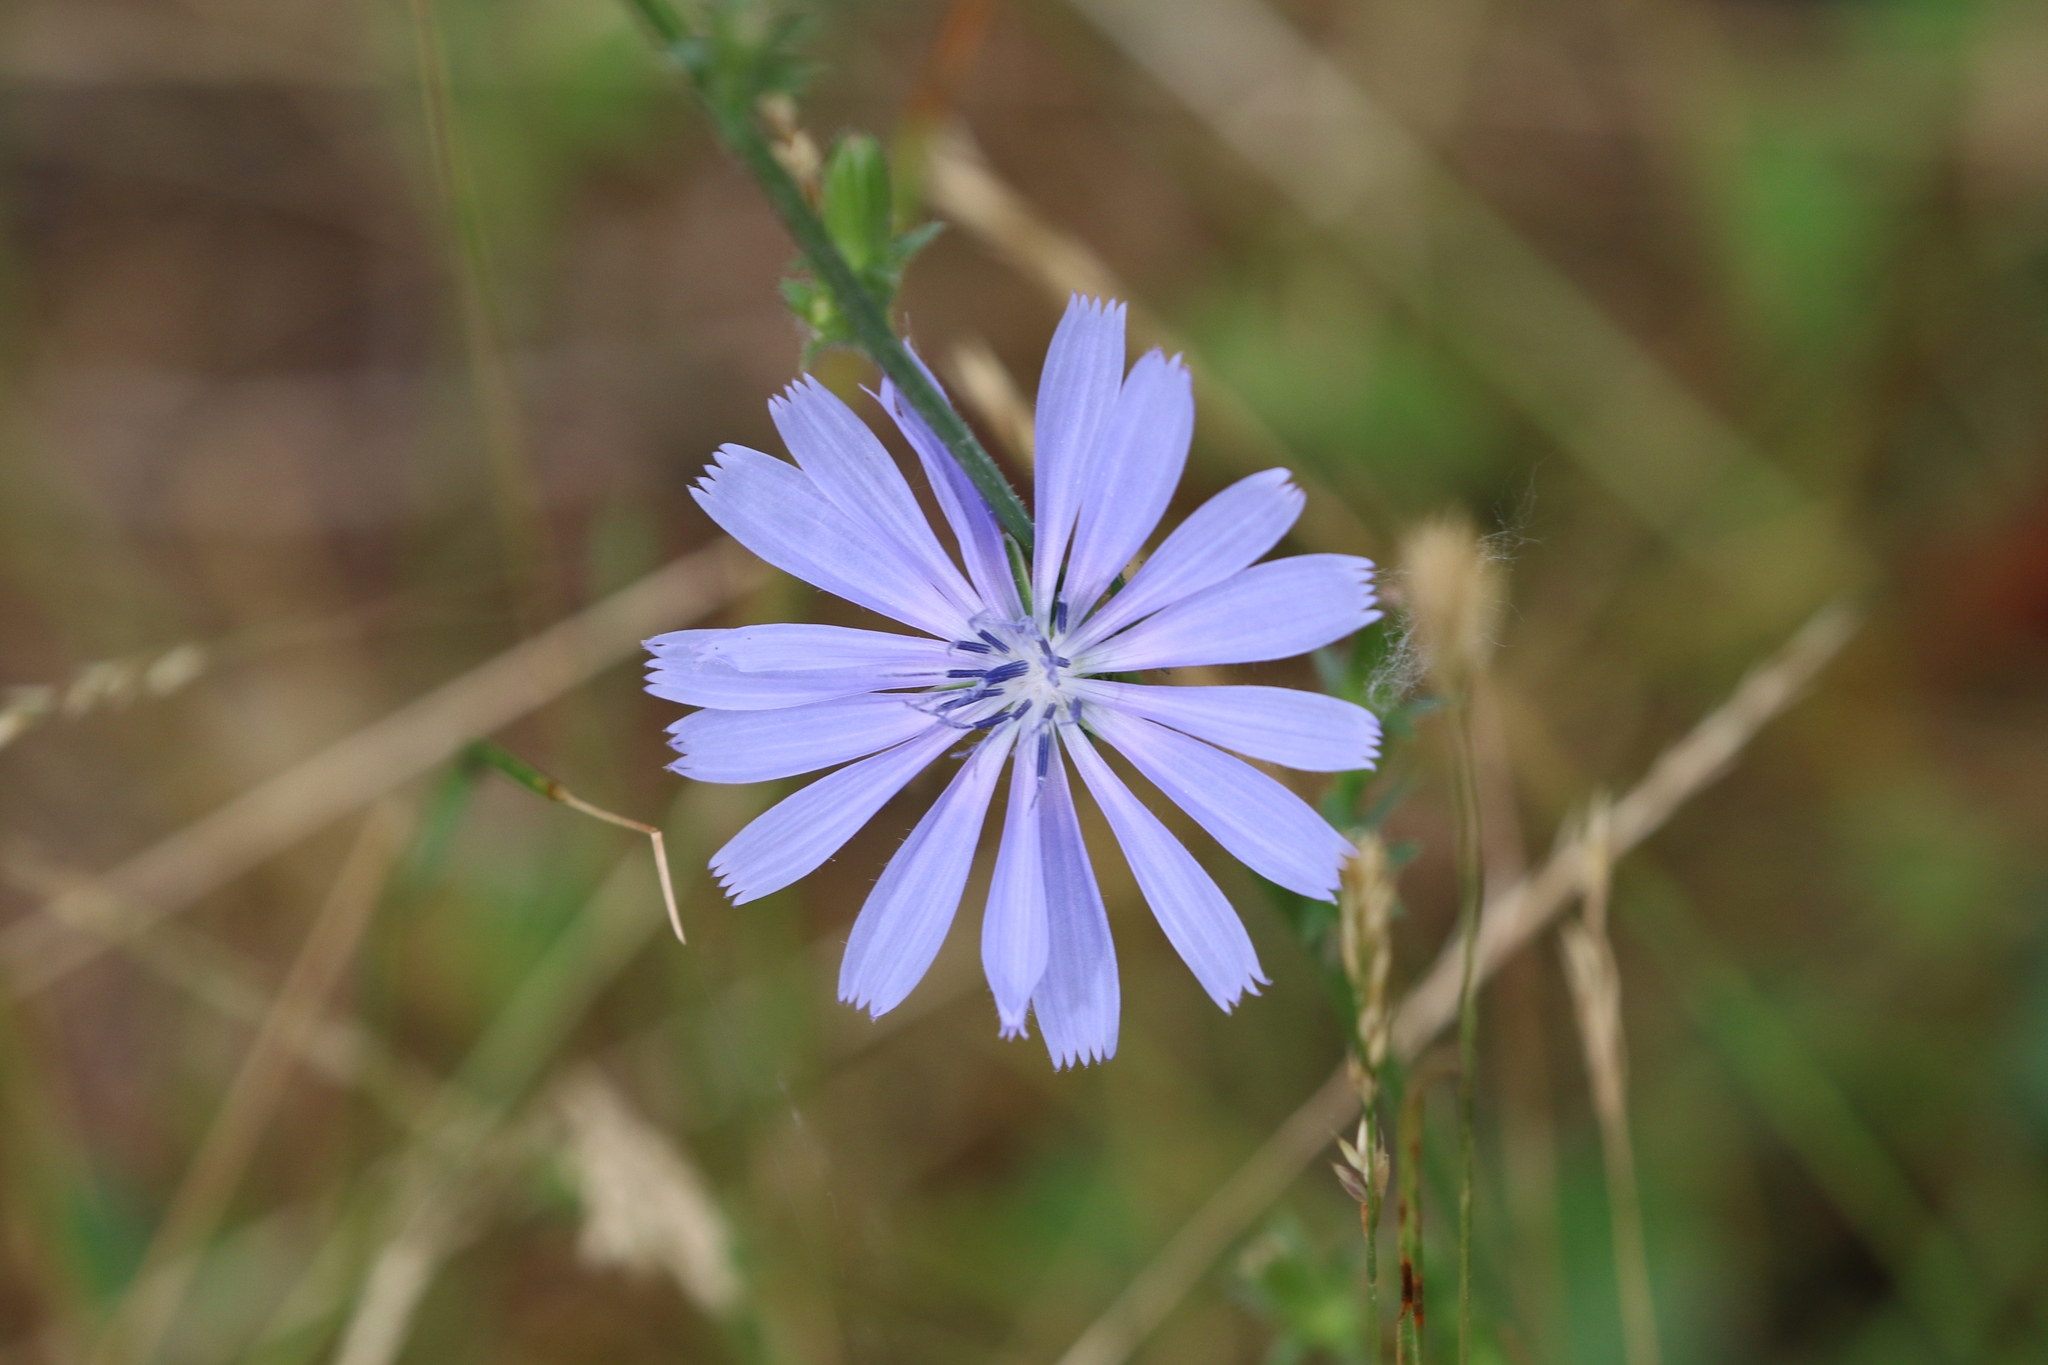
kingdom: Plantae
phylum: Tracheophyta
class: Magnoliopsida
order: Asterales
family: Asteraceae
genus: Cichorium
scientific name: Cichorium intybus
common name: Chicory
